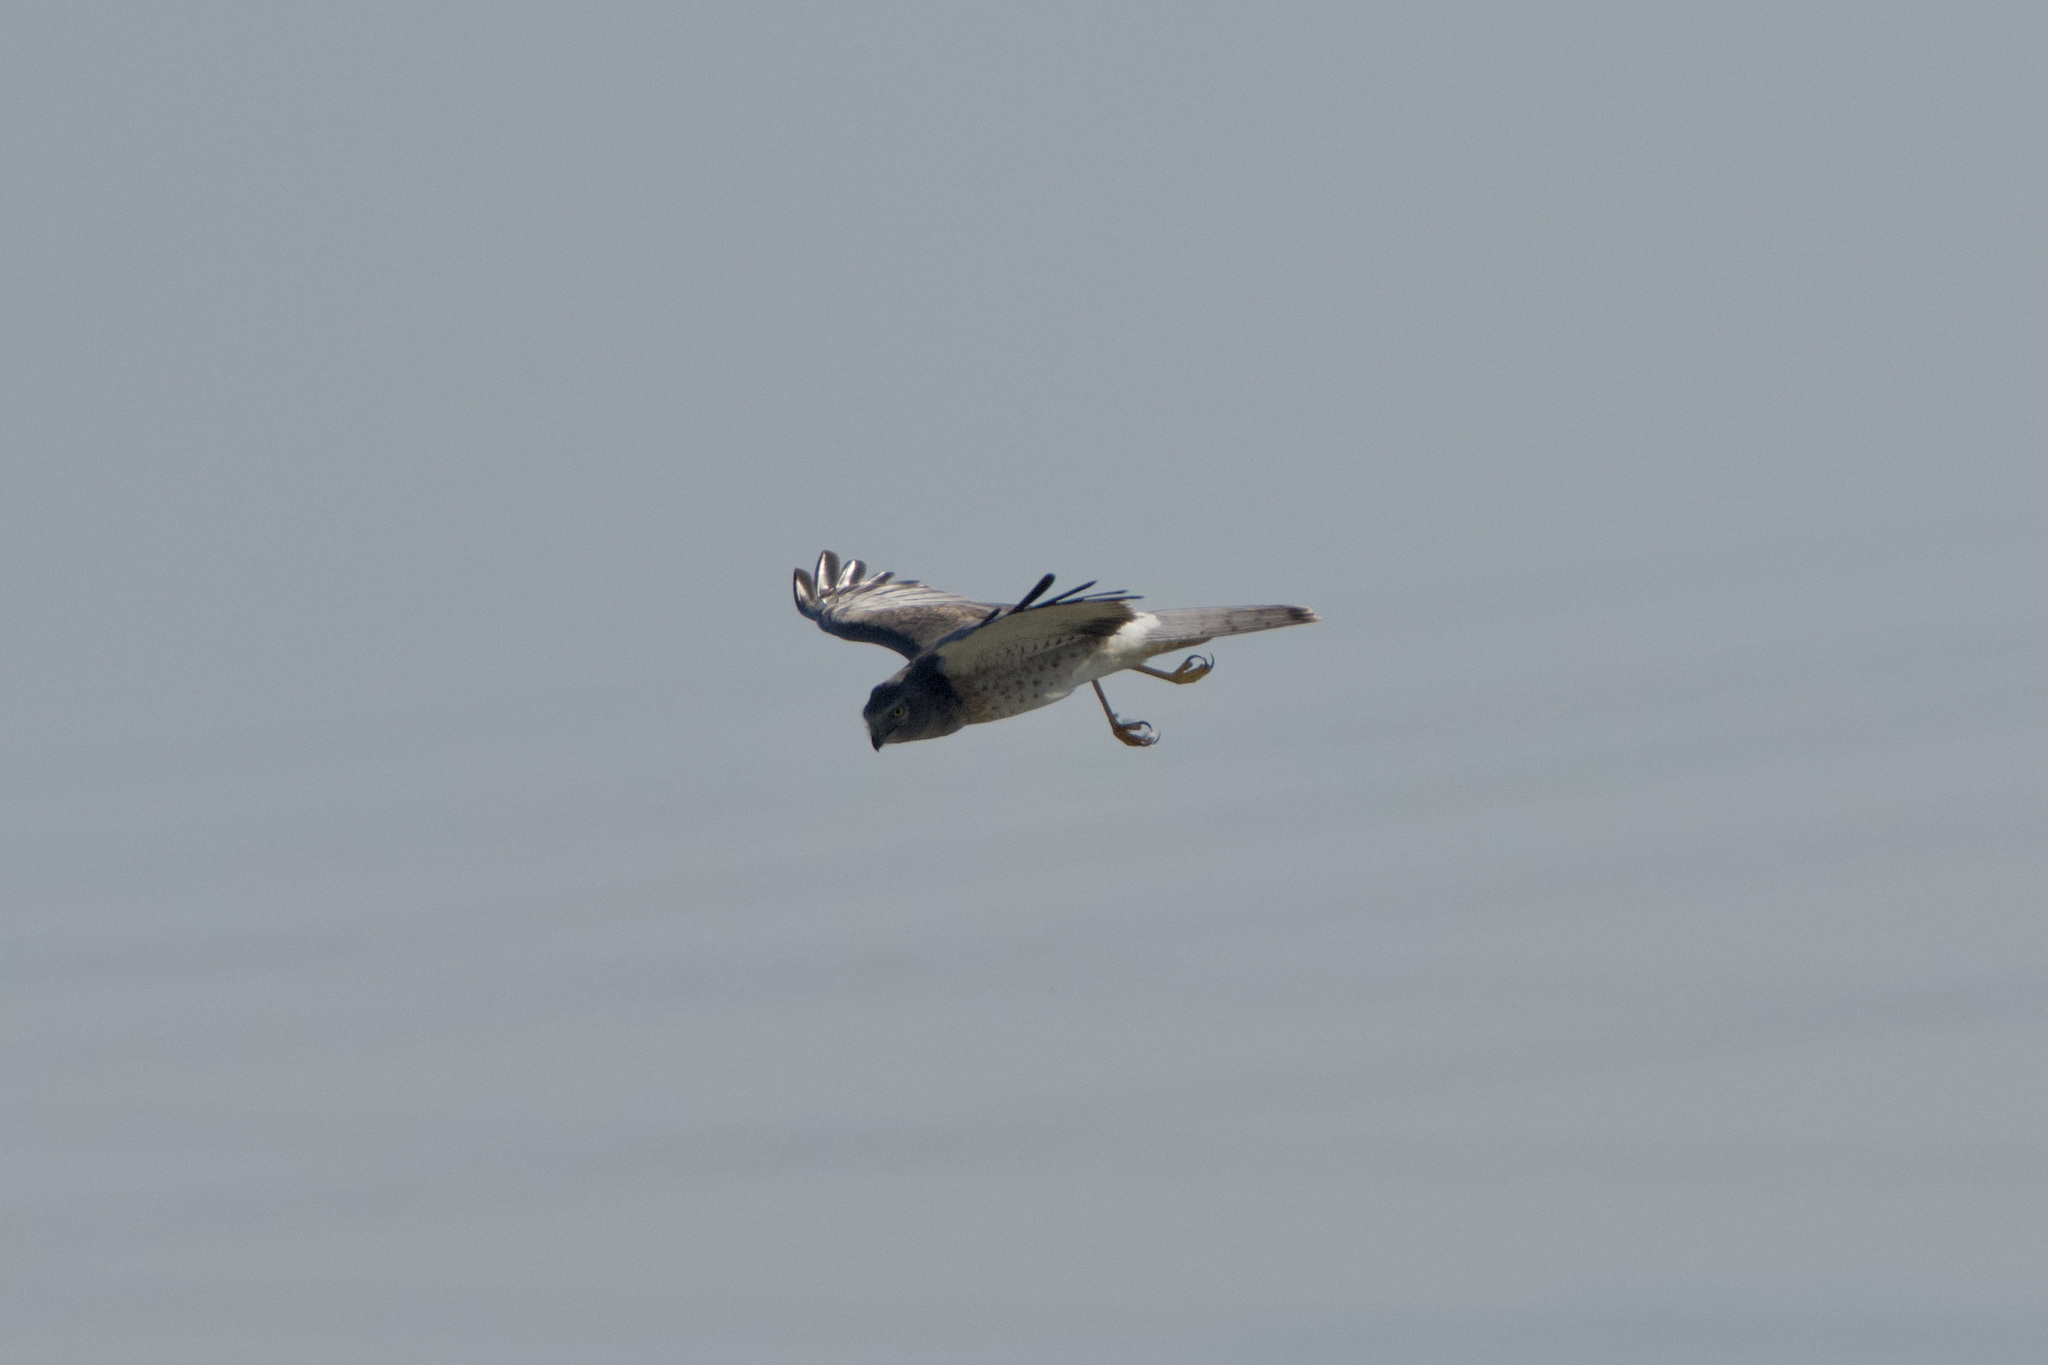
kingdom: Animalia
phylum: Chordata
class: Aves
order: Accipitriformes
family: Accipitridae
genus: Circus
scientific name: Circus cyaneus
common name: Hen harrier
